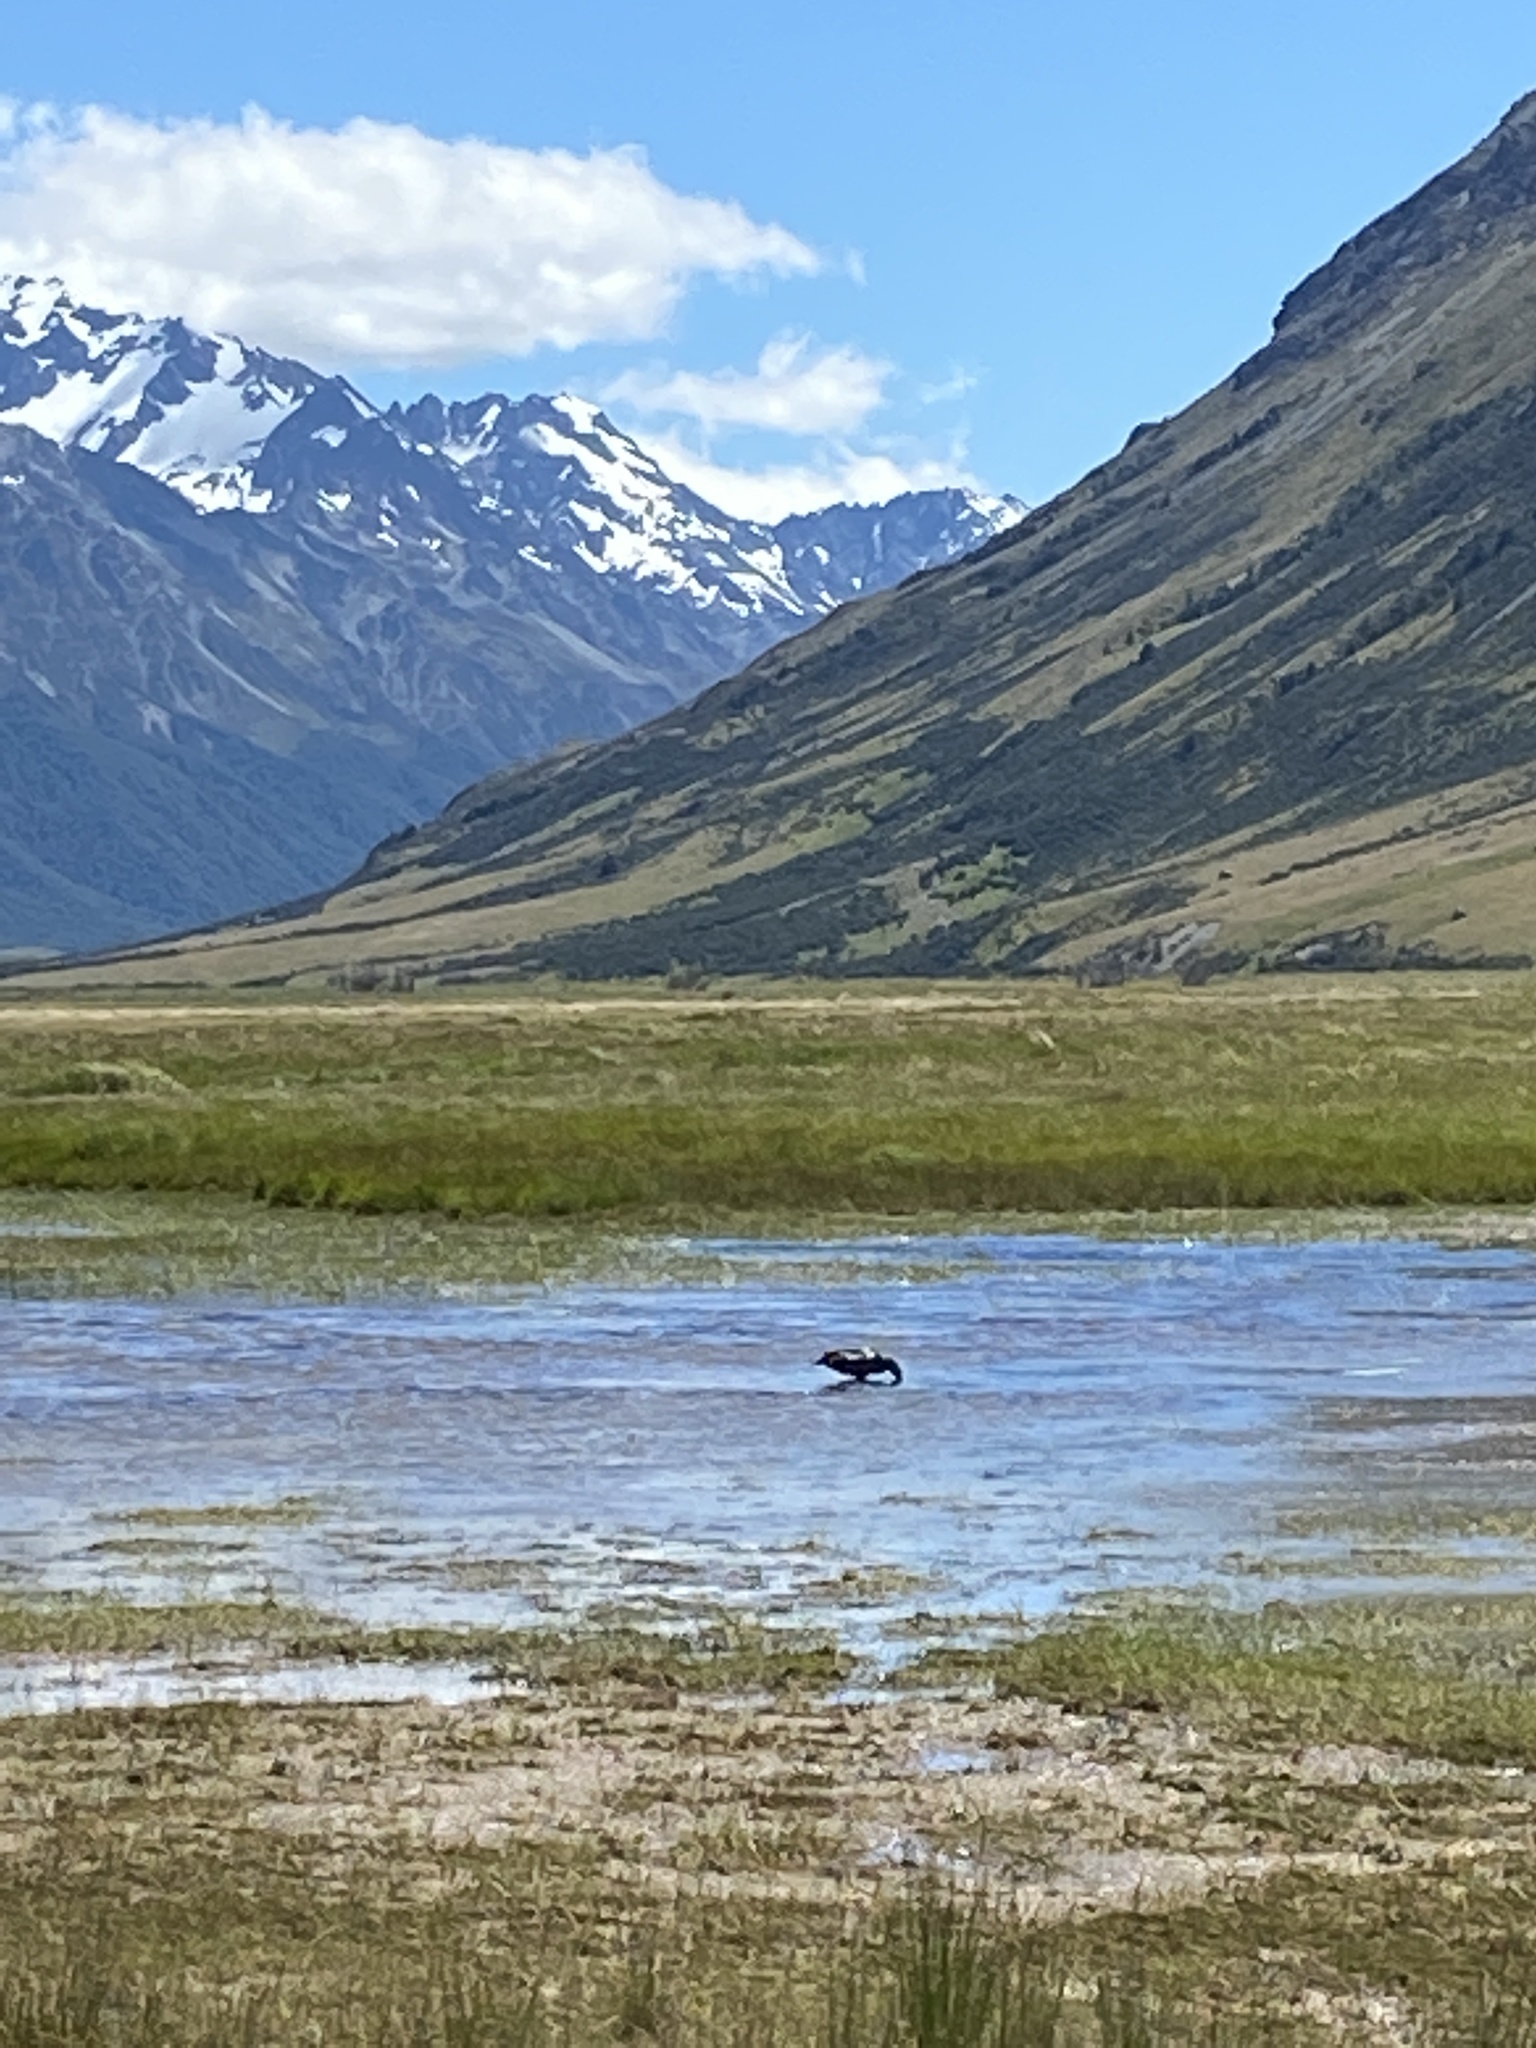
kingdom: Animalia
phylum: Chordata
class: Aves
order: Anseriformes
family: Anatidae
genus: Tadorna
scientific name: Tadorna variegata
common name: Paradise shelduck
